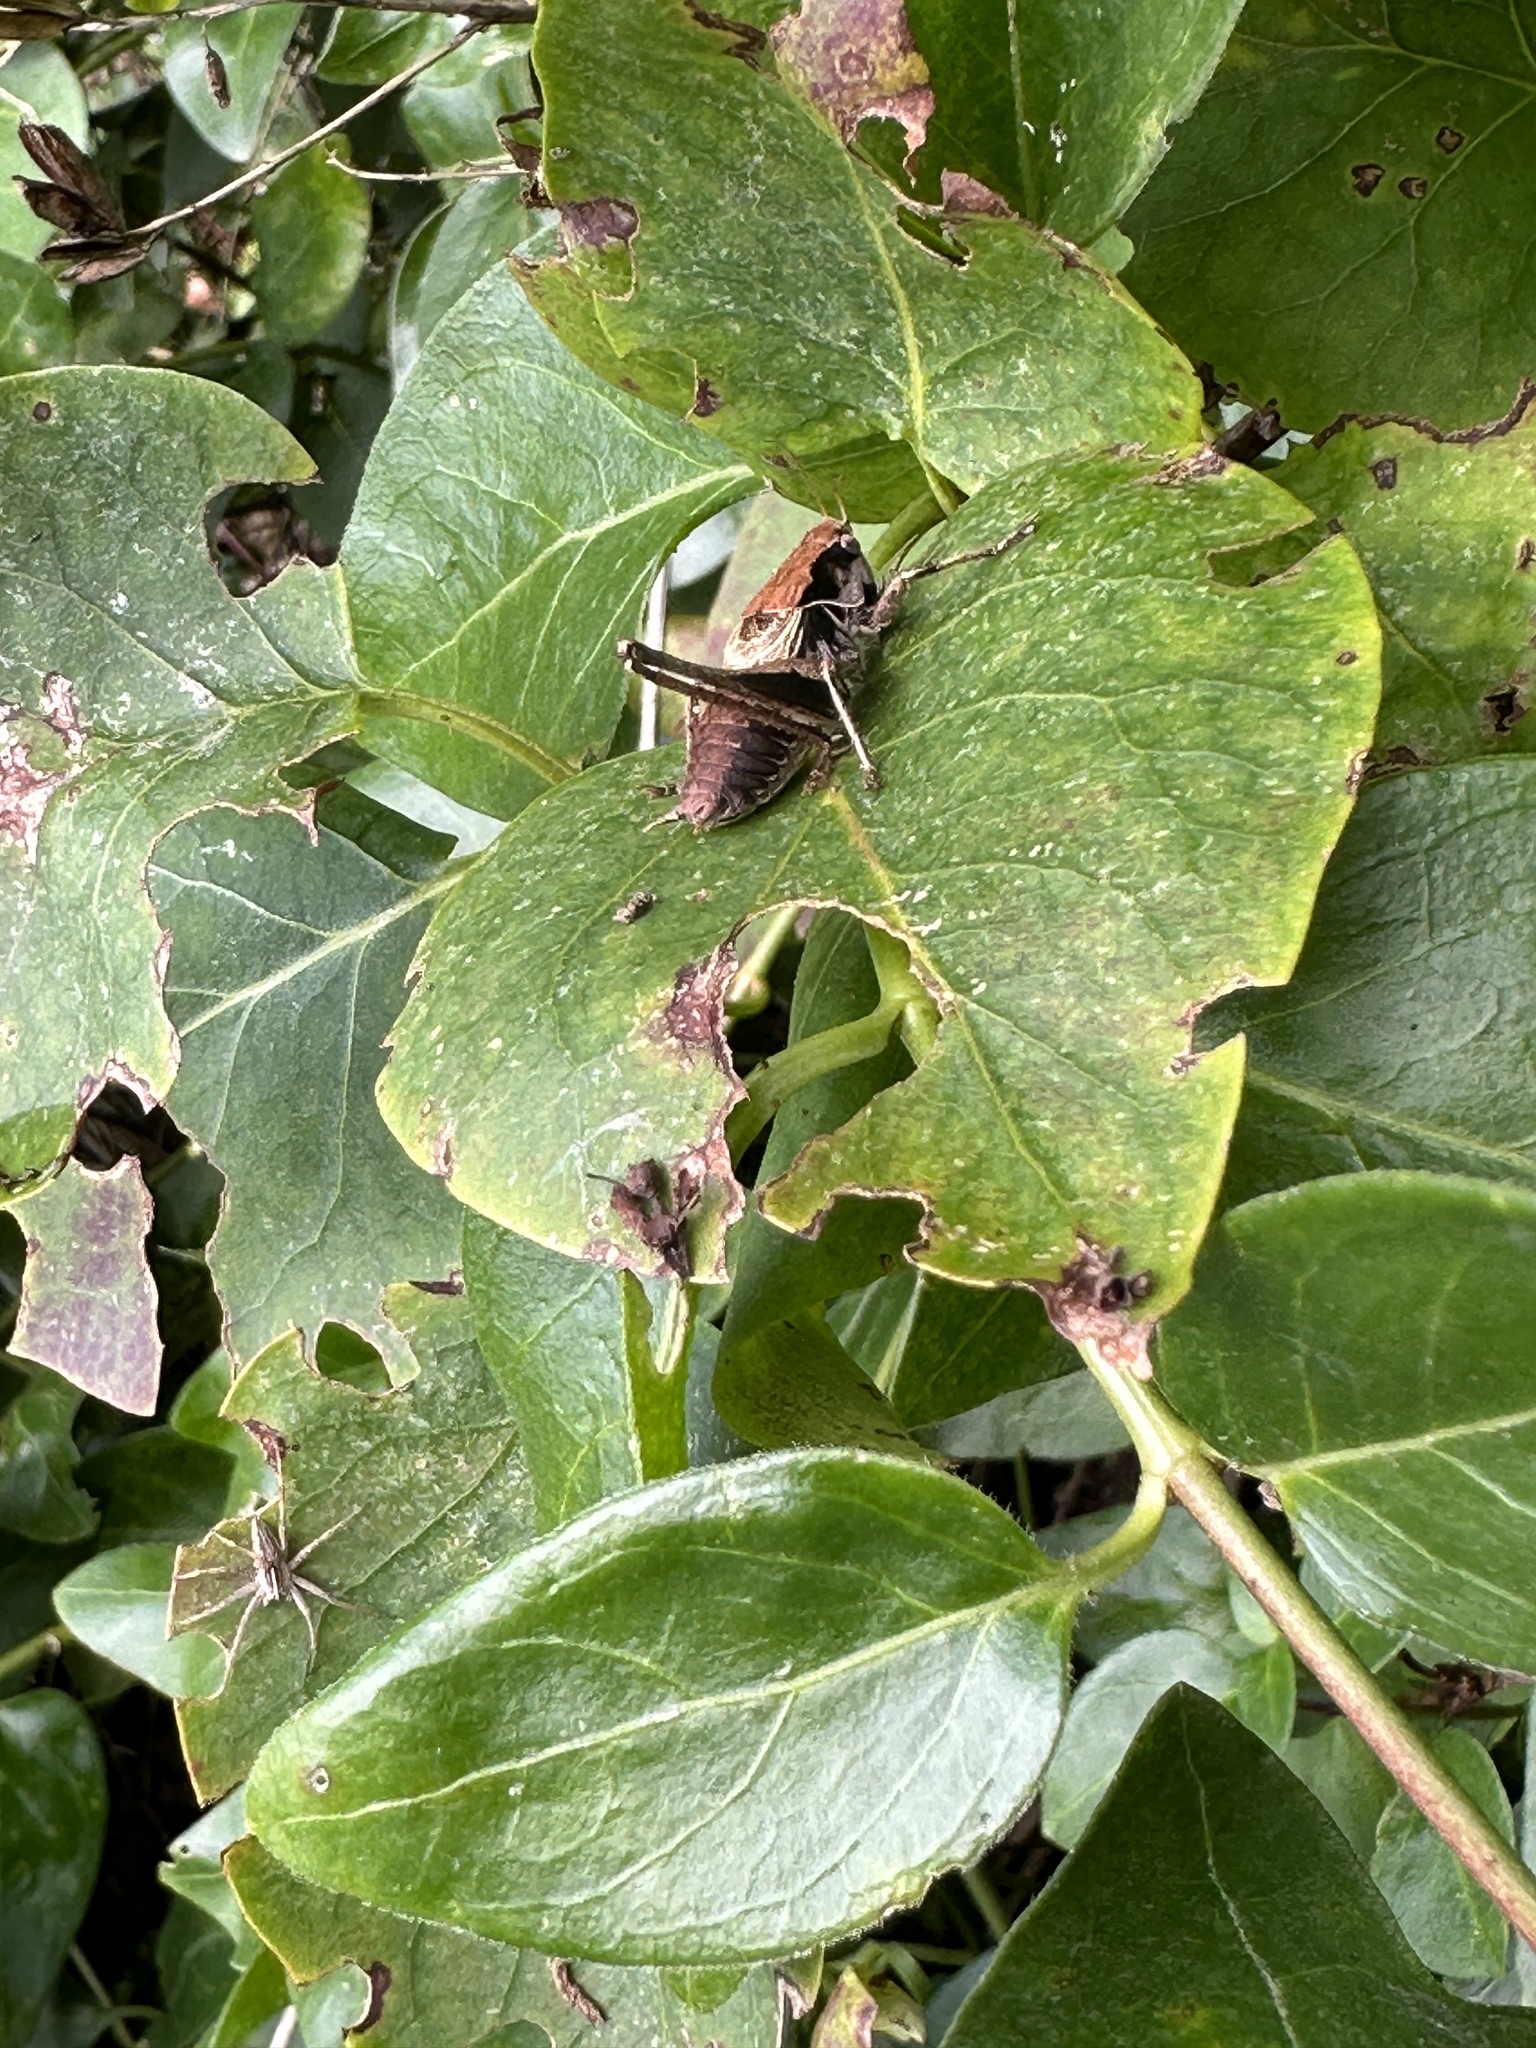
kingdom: Animalia
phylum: Arthropoda
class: Insecta
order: Orthoptera
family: Tettigoniidae
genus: Pholidoptera
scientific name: Pholidoptera griseoaptera
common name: Dark bush-cricket
